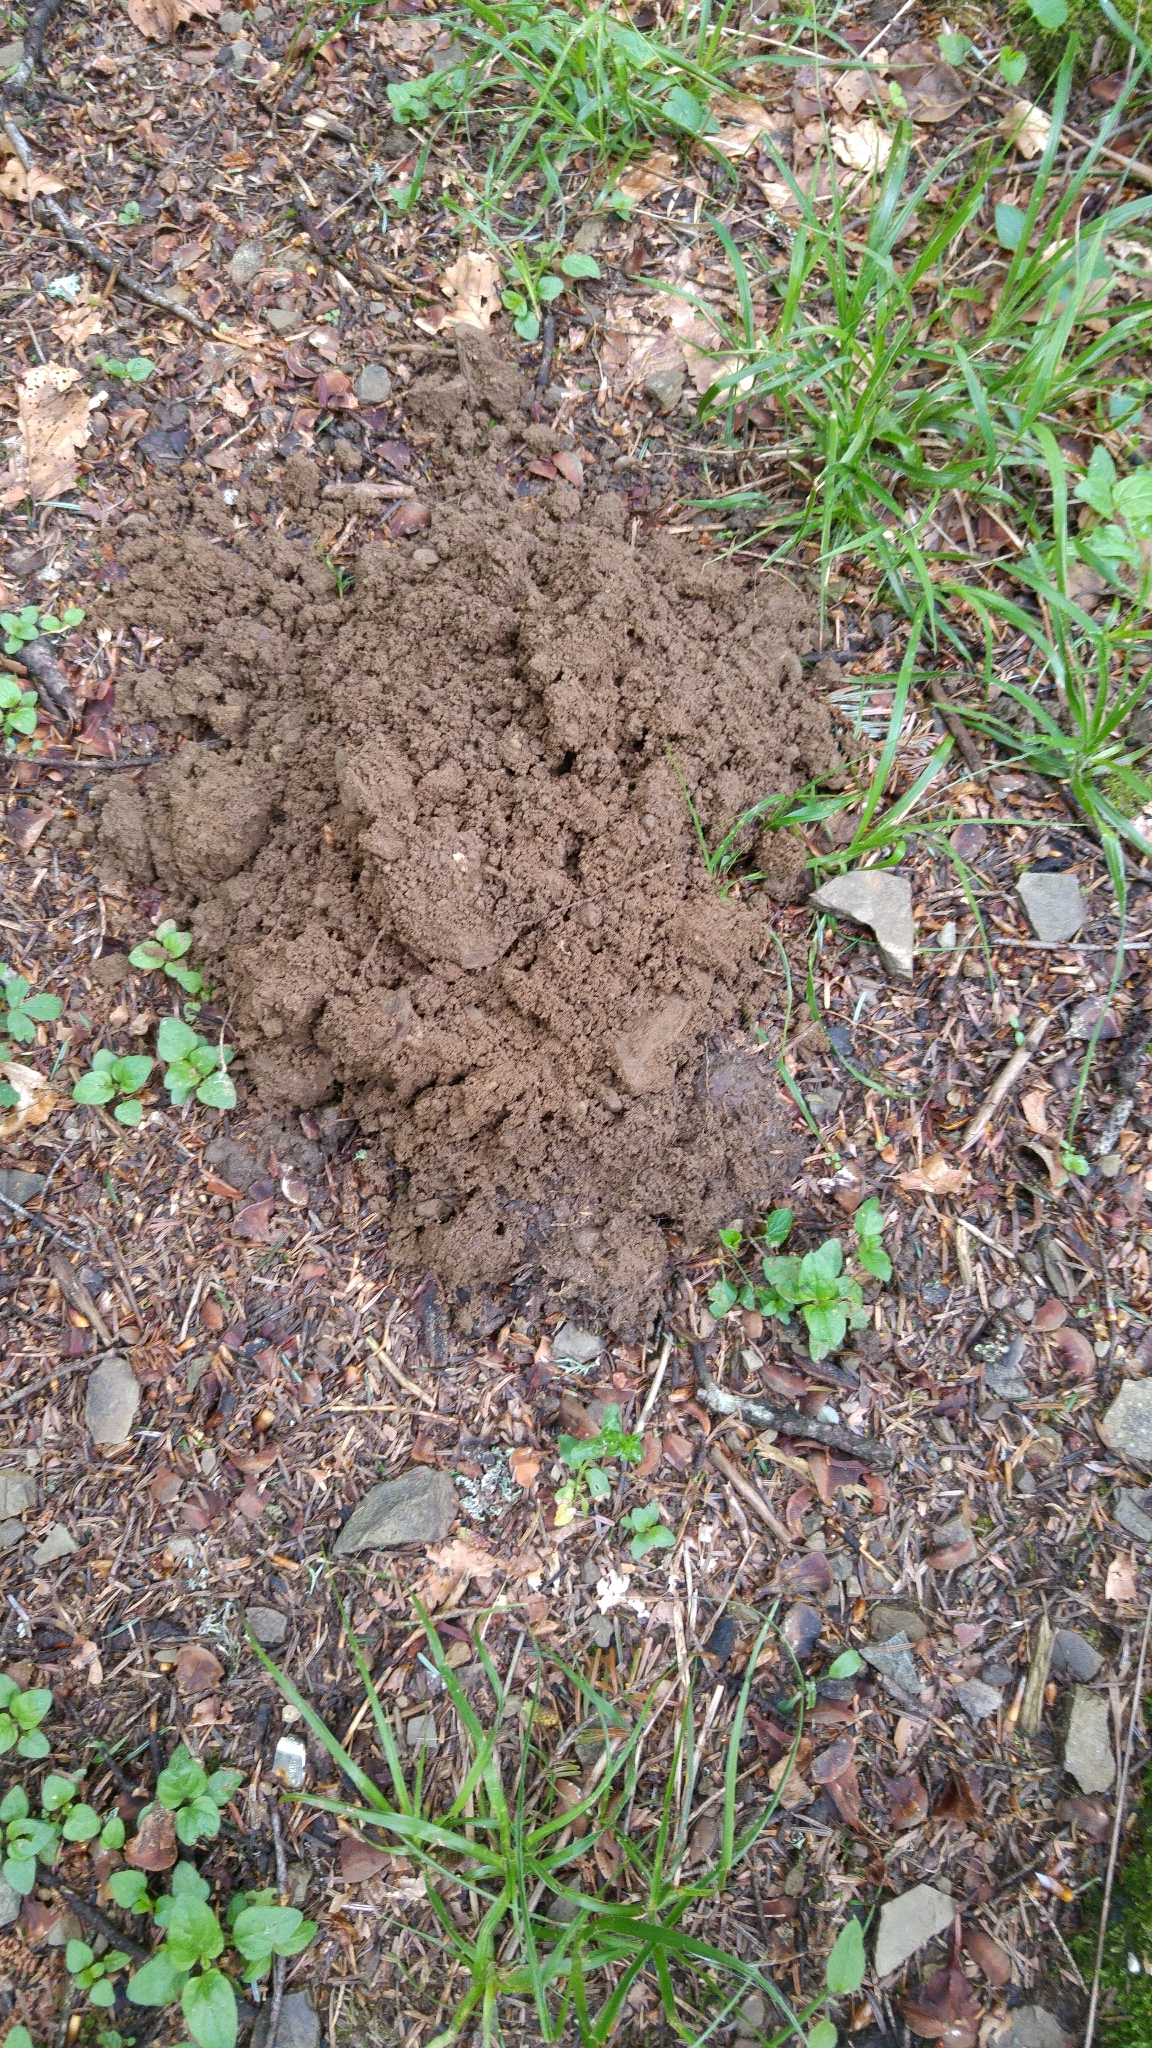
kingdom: Animalia
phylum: Chordata
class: Mammalia
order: Soricomorpha
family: Talpidae
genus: Talpa
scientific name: Talpa
